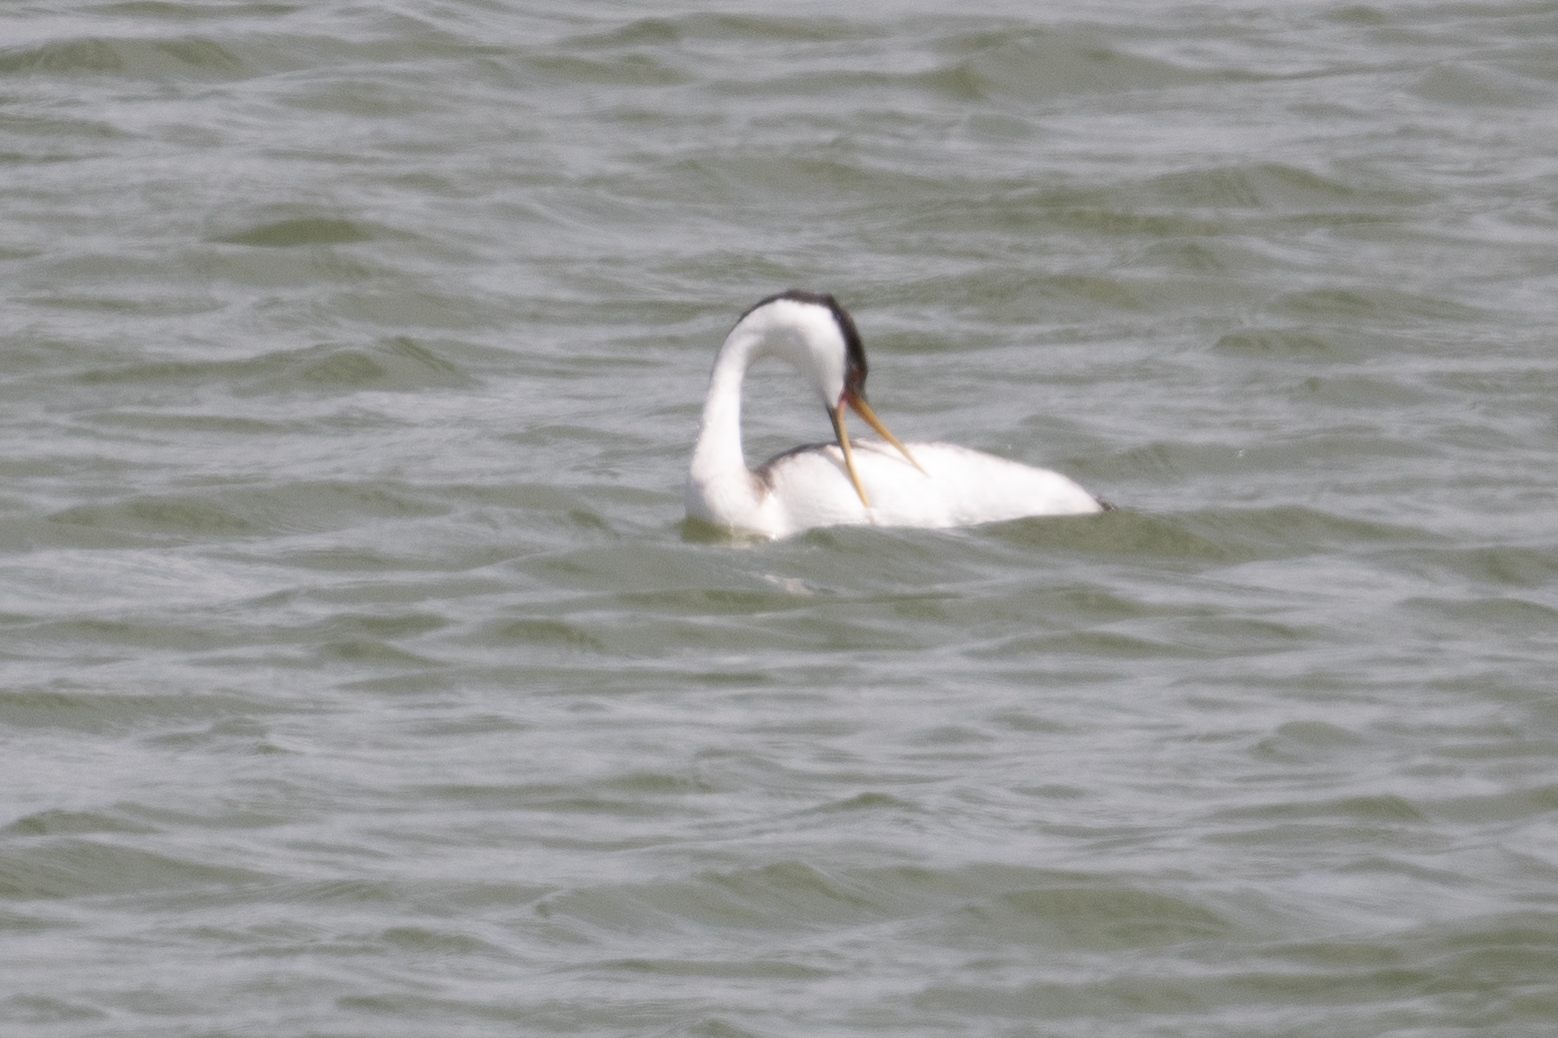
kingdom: Animalia
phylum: Chordata
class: Aves
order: Podicipediformes
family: Podicipedidae
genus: Aechmophorus
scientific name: Aechmophorus occidentalis
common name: Western grebe
